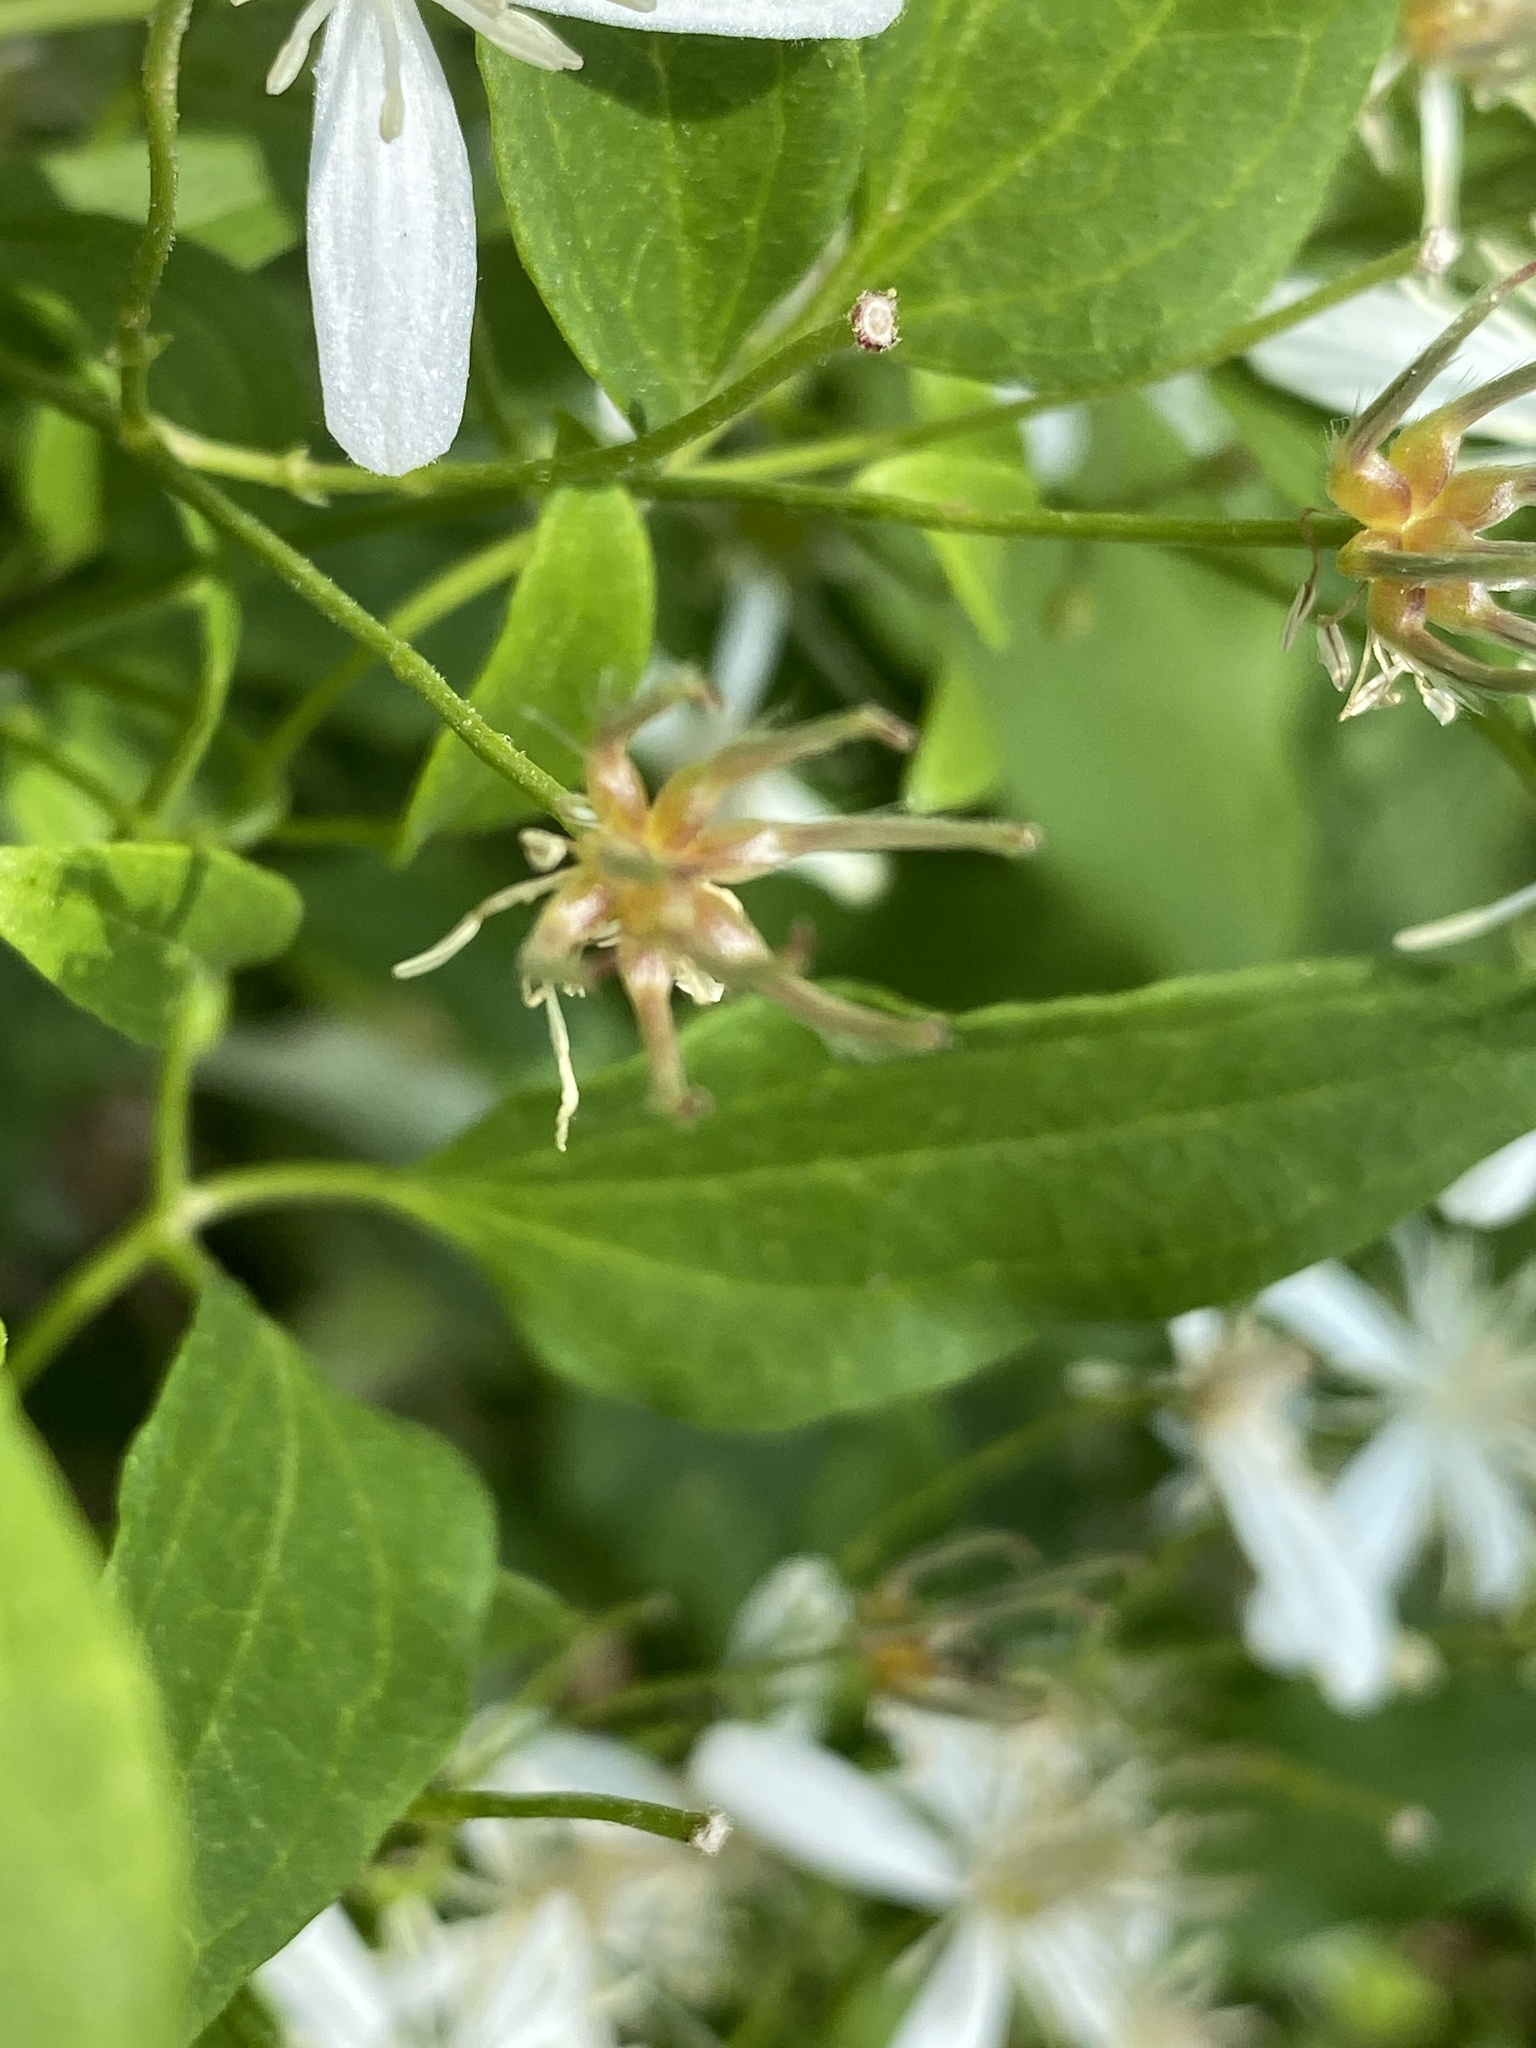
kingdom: Plantae
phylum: Tracheophyta
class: Magnoliopsida
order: Ranunculales
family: Ranunculaceae
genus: Clematis
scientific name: Clematis terniflora
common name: Sweet autumn clematis
